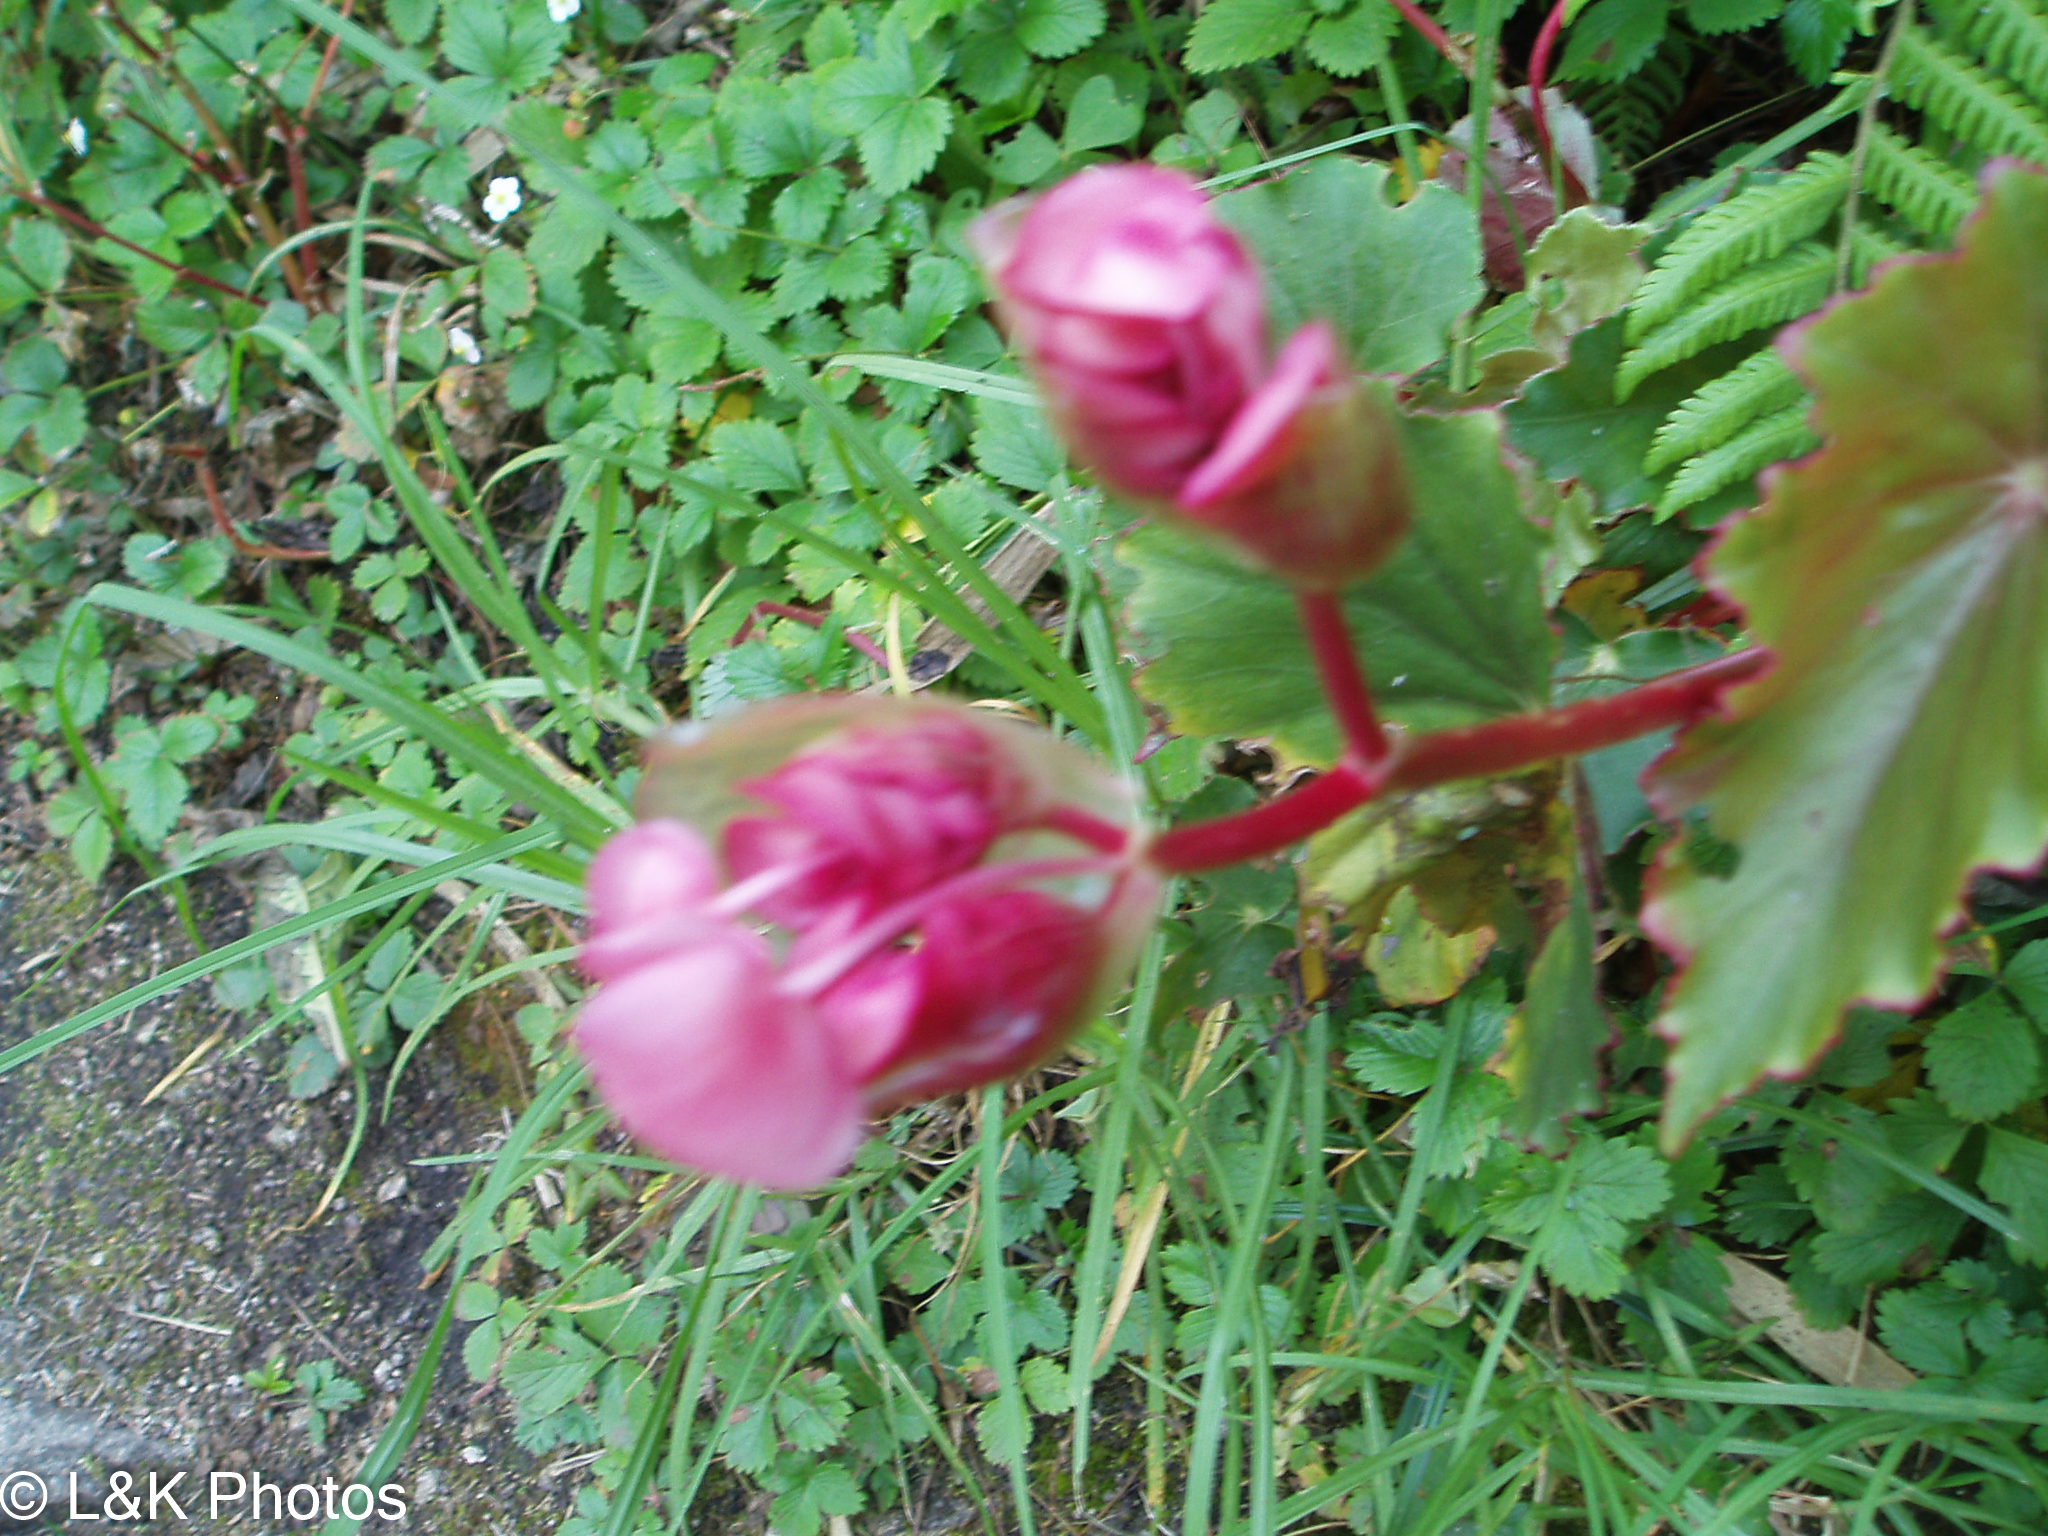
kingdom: Plantae
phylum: Tracheophyta
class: Magnoliopsida
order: Cucurbitales
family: Begoniaceae
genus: Begonia
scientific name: Begonia bracteosa
